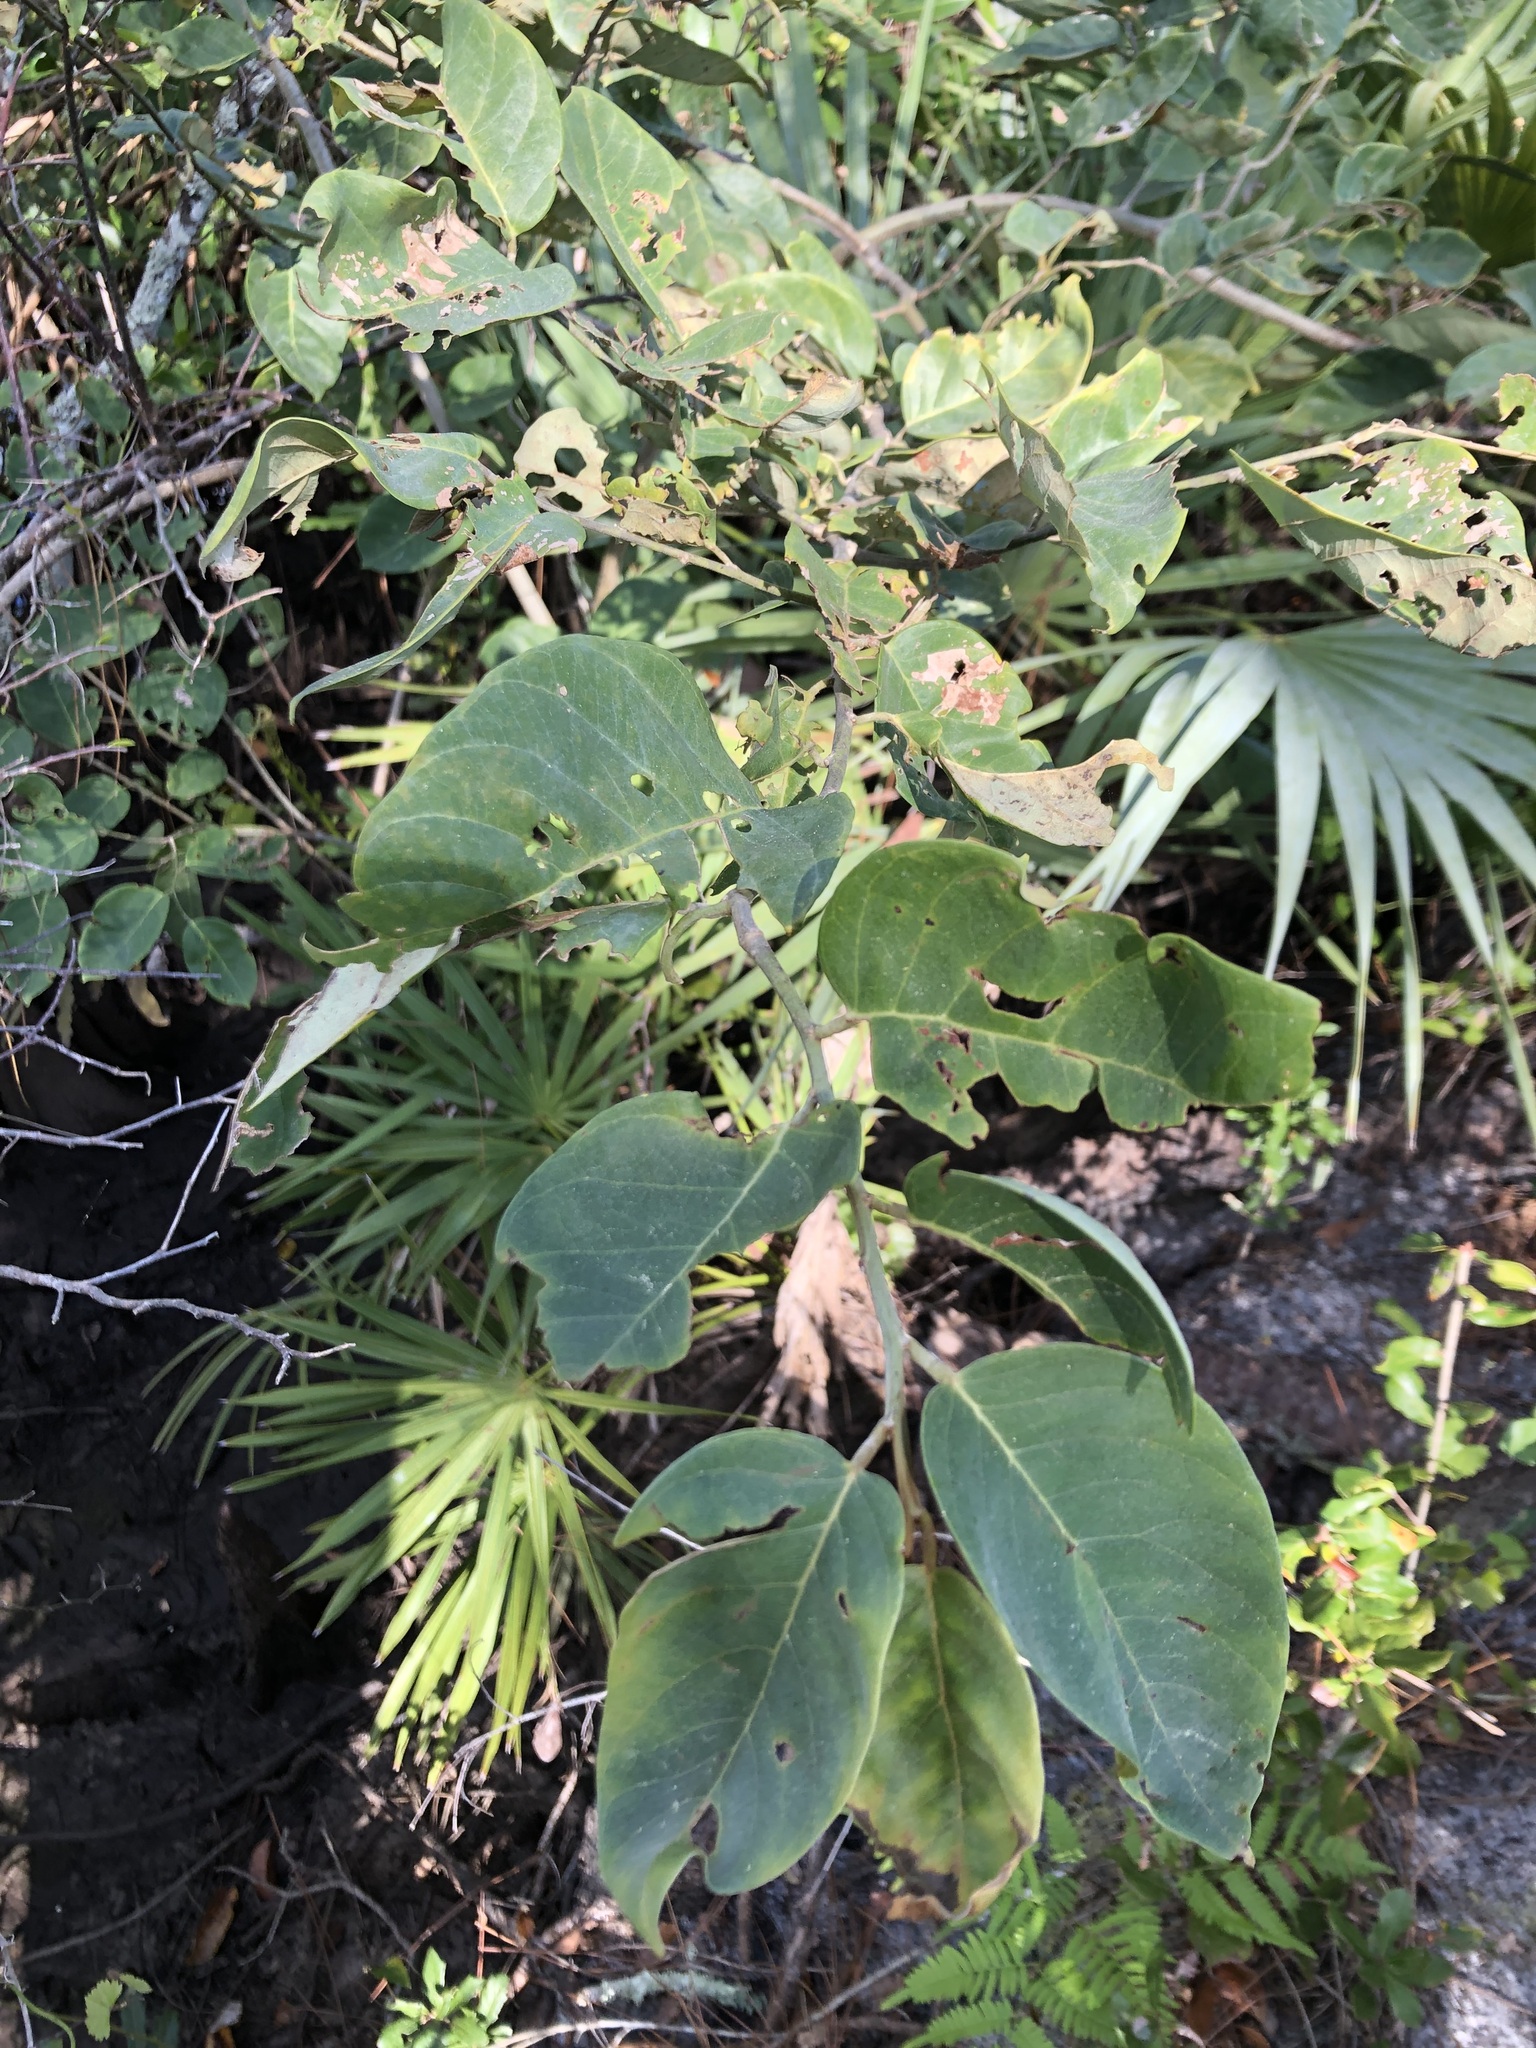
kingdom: Plantae
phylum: Tracheophyta
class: Magnoliopsida
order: Fabales
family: Fabaceae
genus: Dalbergia
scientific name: Dalbergia ecastaphyllum
